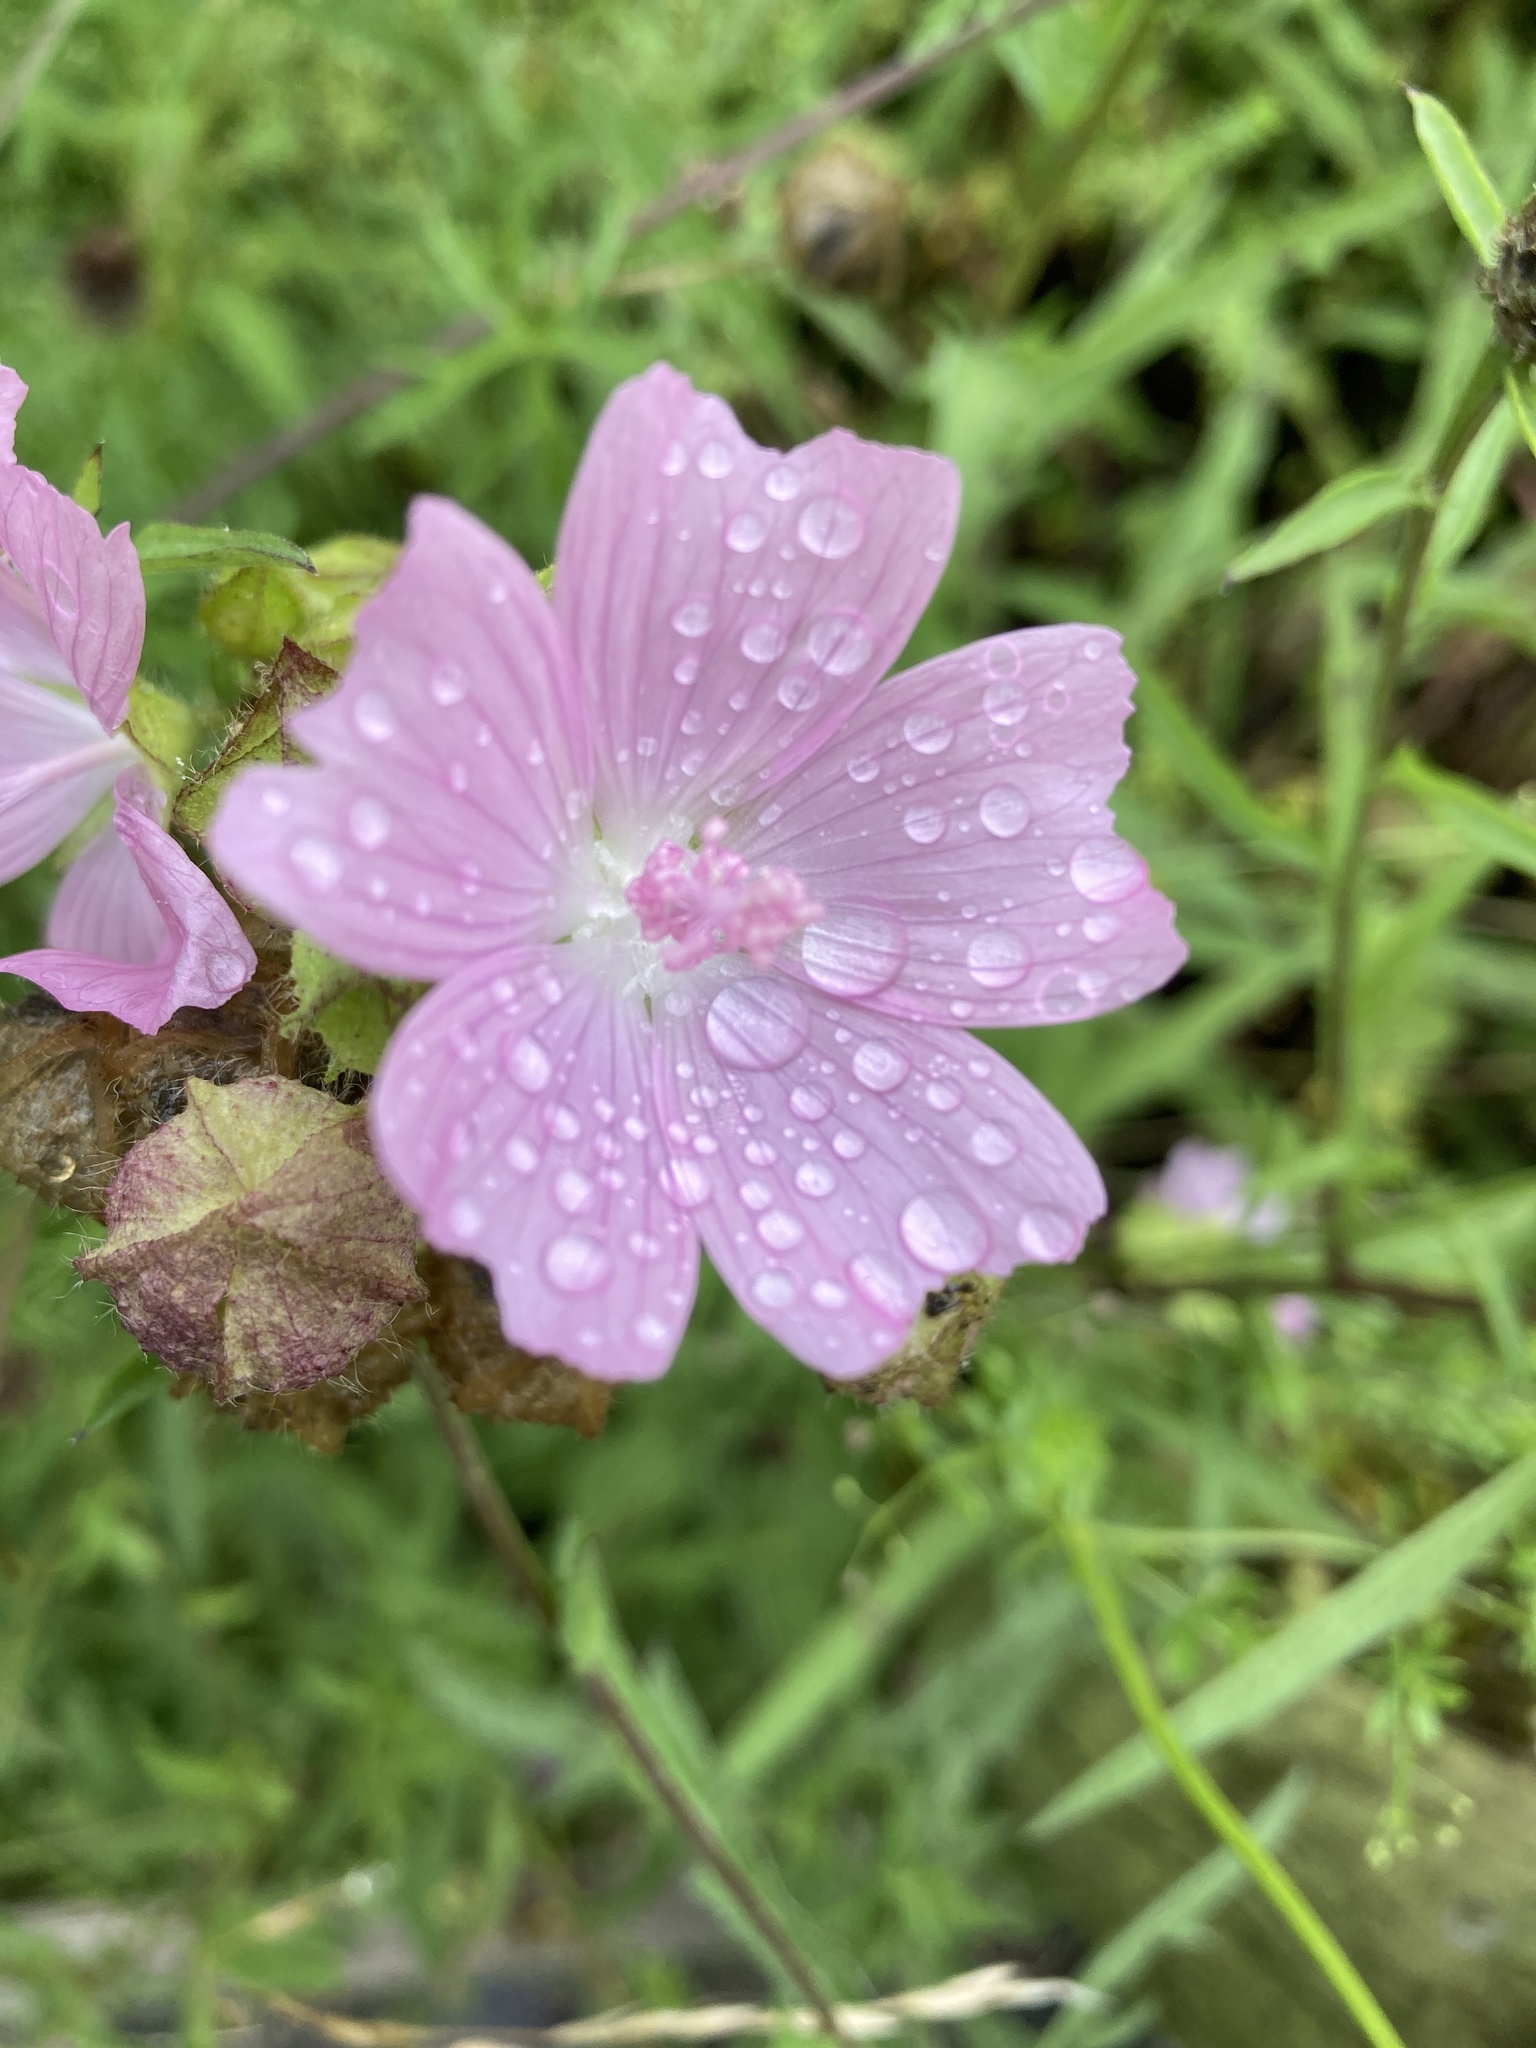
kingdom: Plantae
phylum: Tracheophyta
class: Magnoliopsida
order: Malvales
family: Malvaceae
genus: Malva
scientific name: Malva moschata
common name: Musk mallow
